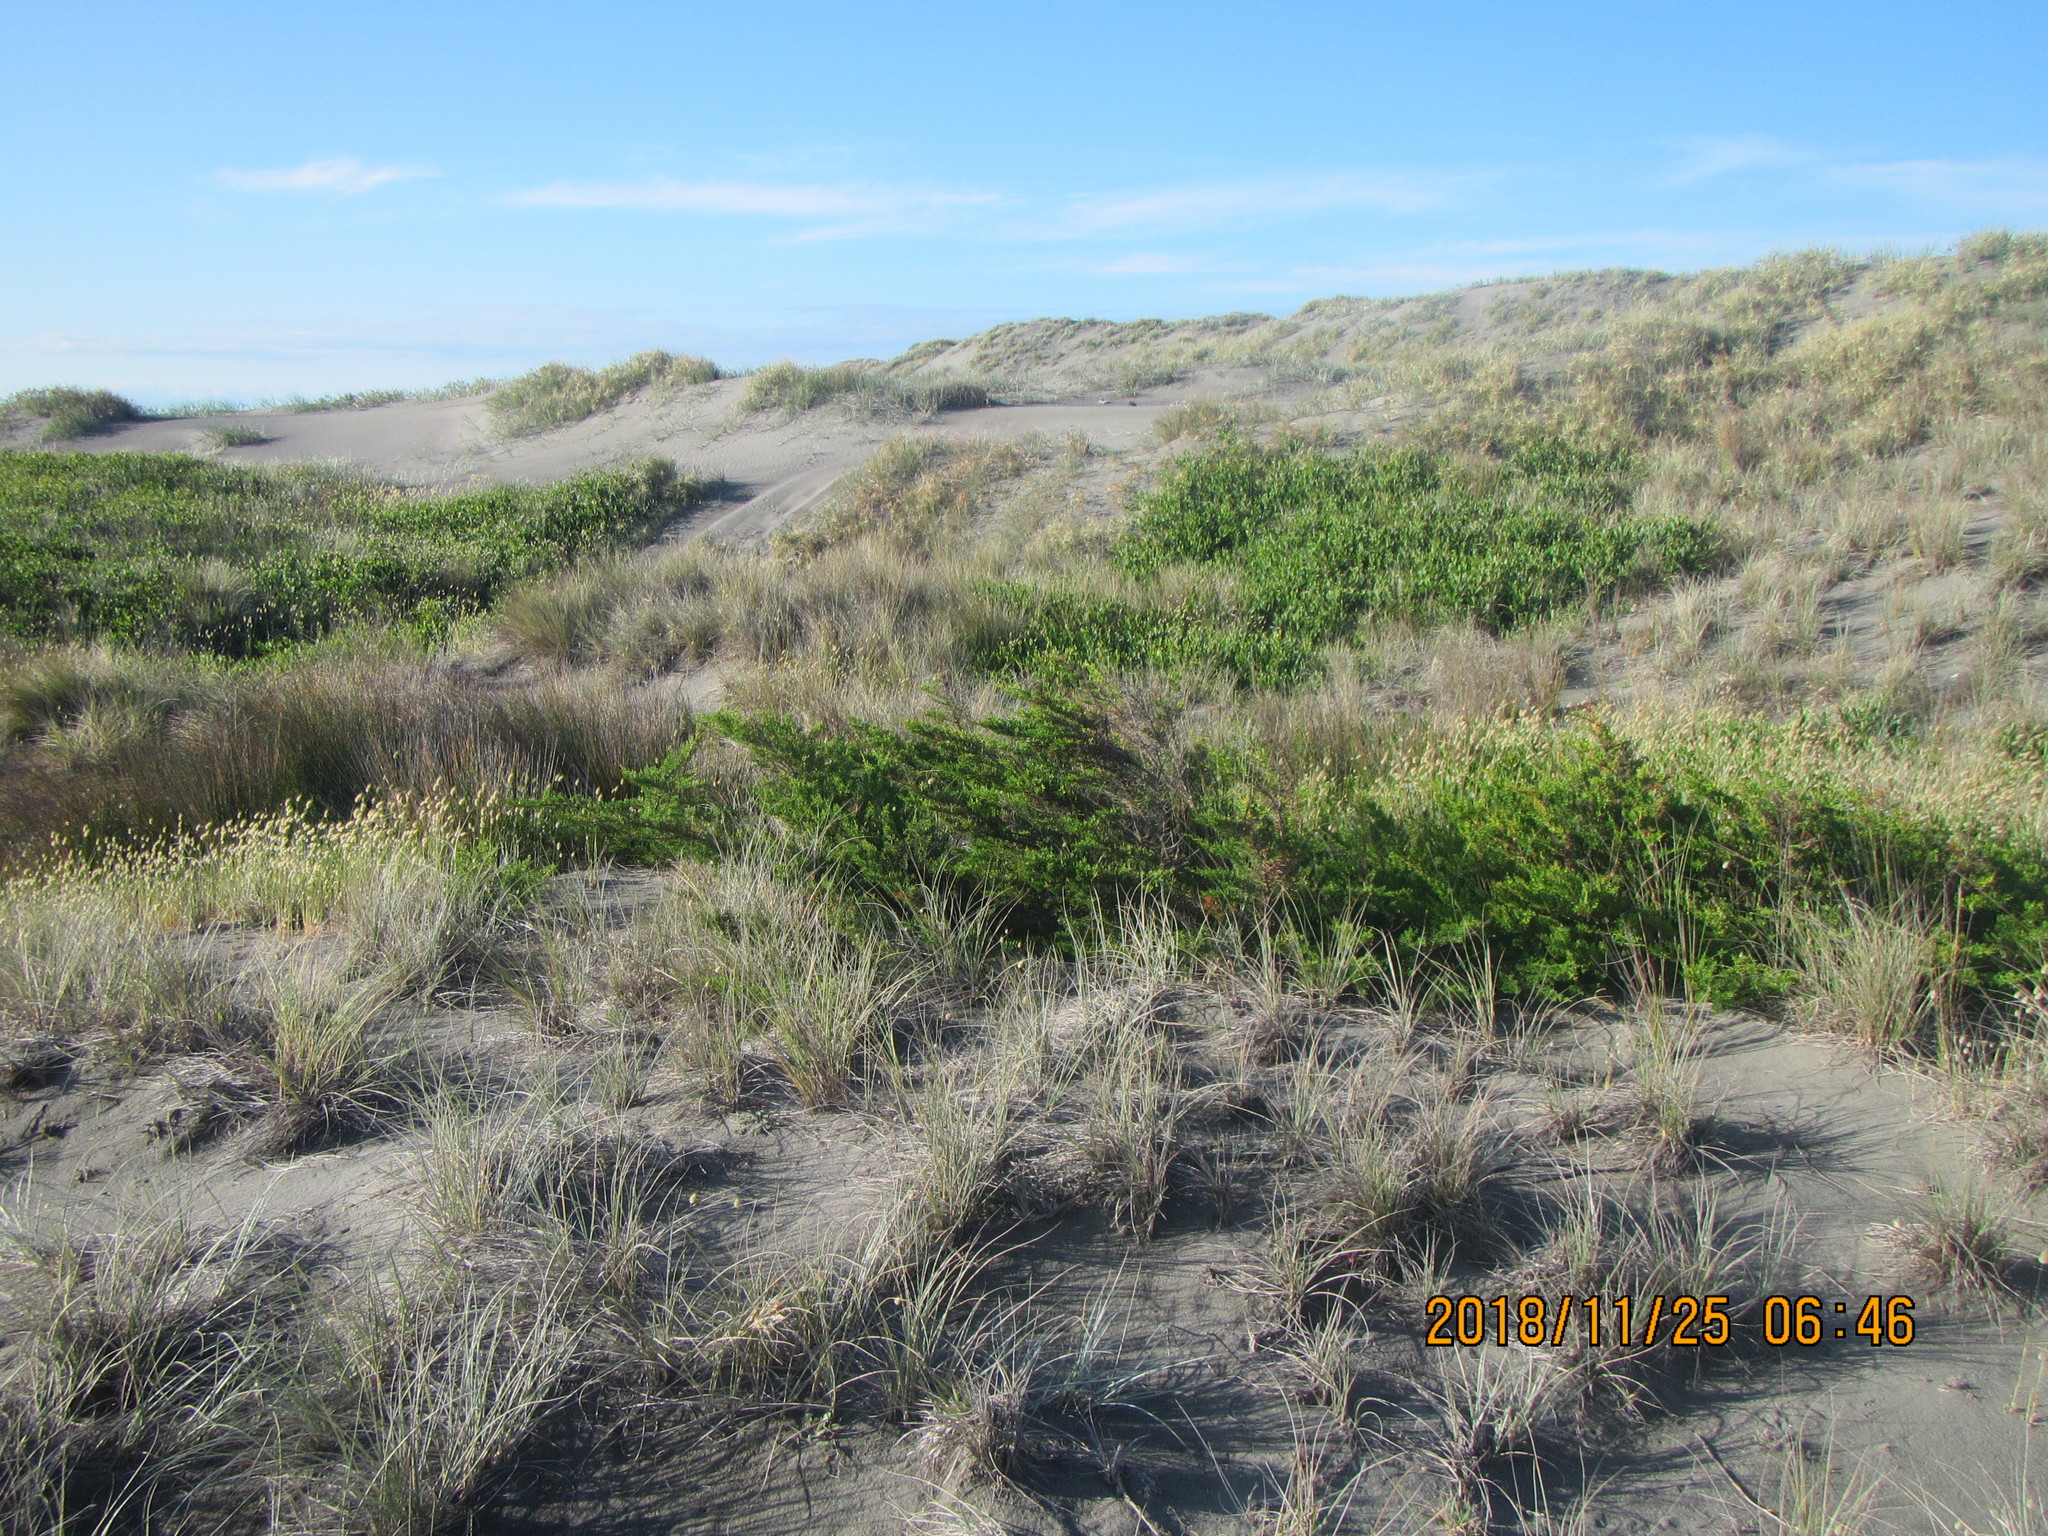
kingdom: Plantae
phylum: Tracheophyta
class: Pinopsida
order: Pinales
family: Cupressaceae
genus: Cupressus
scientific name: Cupressus macrocarpa
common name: Monterey cypress
